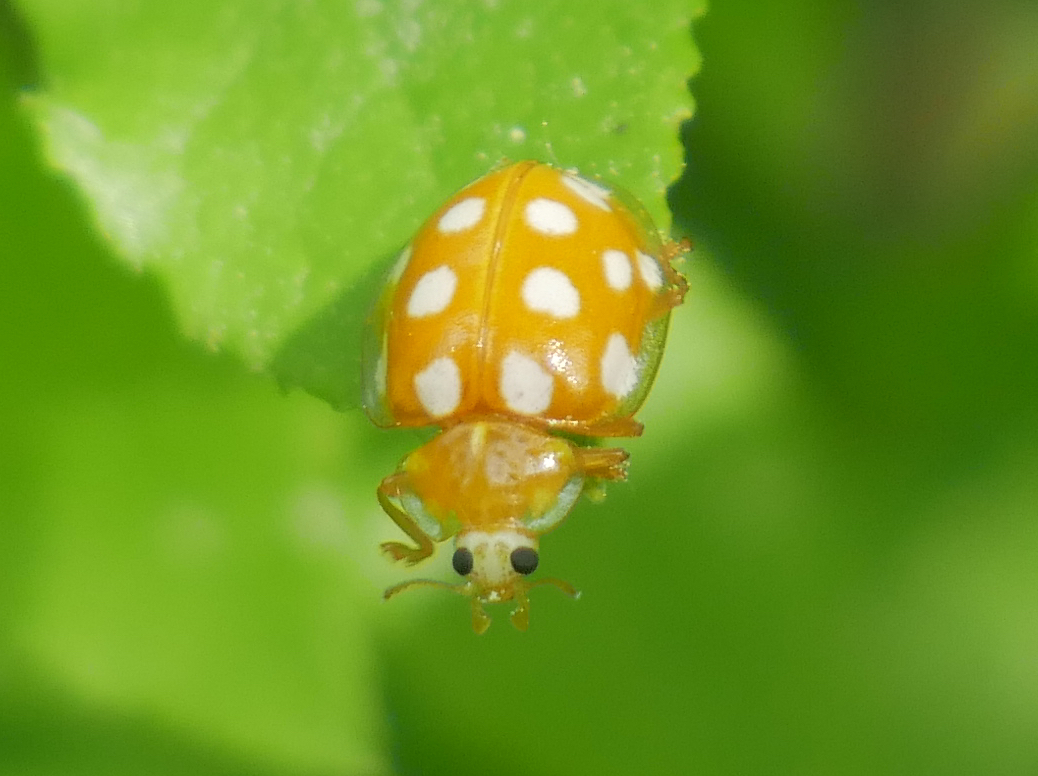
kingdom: Animalia
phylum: Arthropoda
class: Insecta
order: Coleoptera
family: Coccinellidae
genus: Halyzia
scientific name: Halyzia sedecimguttata
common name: Orange ladybird
